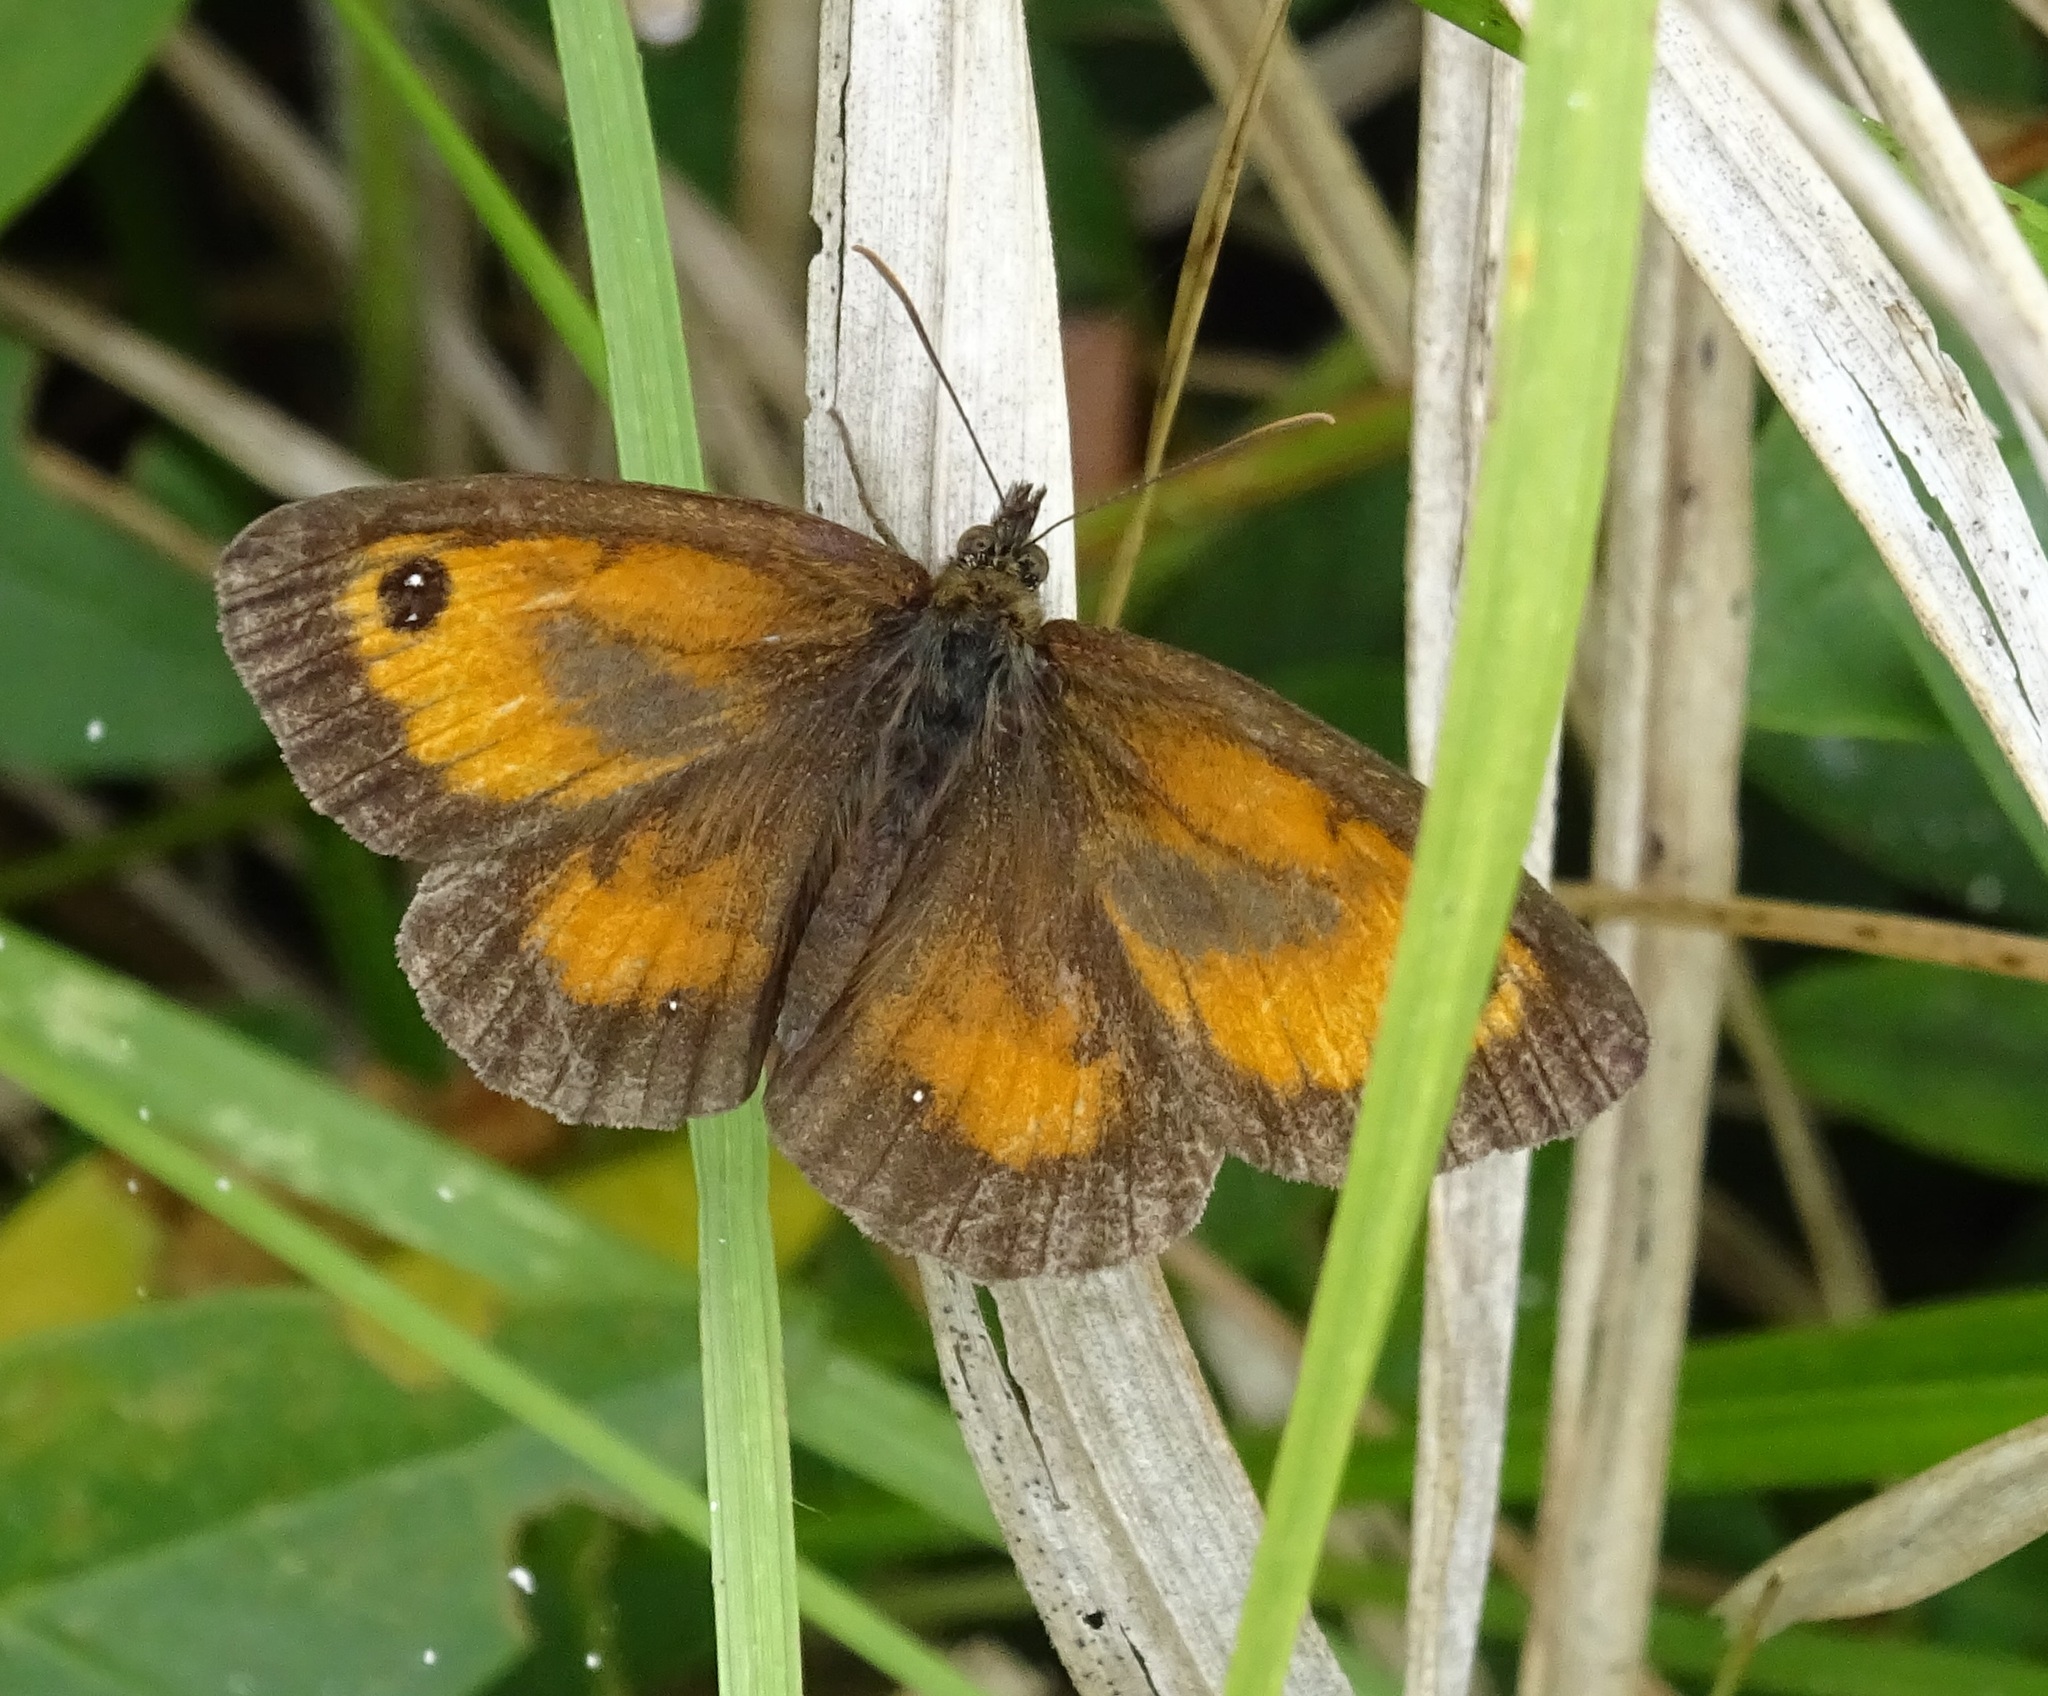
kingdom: Animalia
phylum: Arthropoda
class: Insecta
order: Lepidoptera
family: Nymphalidae
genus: Pyronia
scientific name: Pyronia tithonus
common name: Gatekeeper
